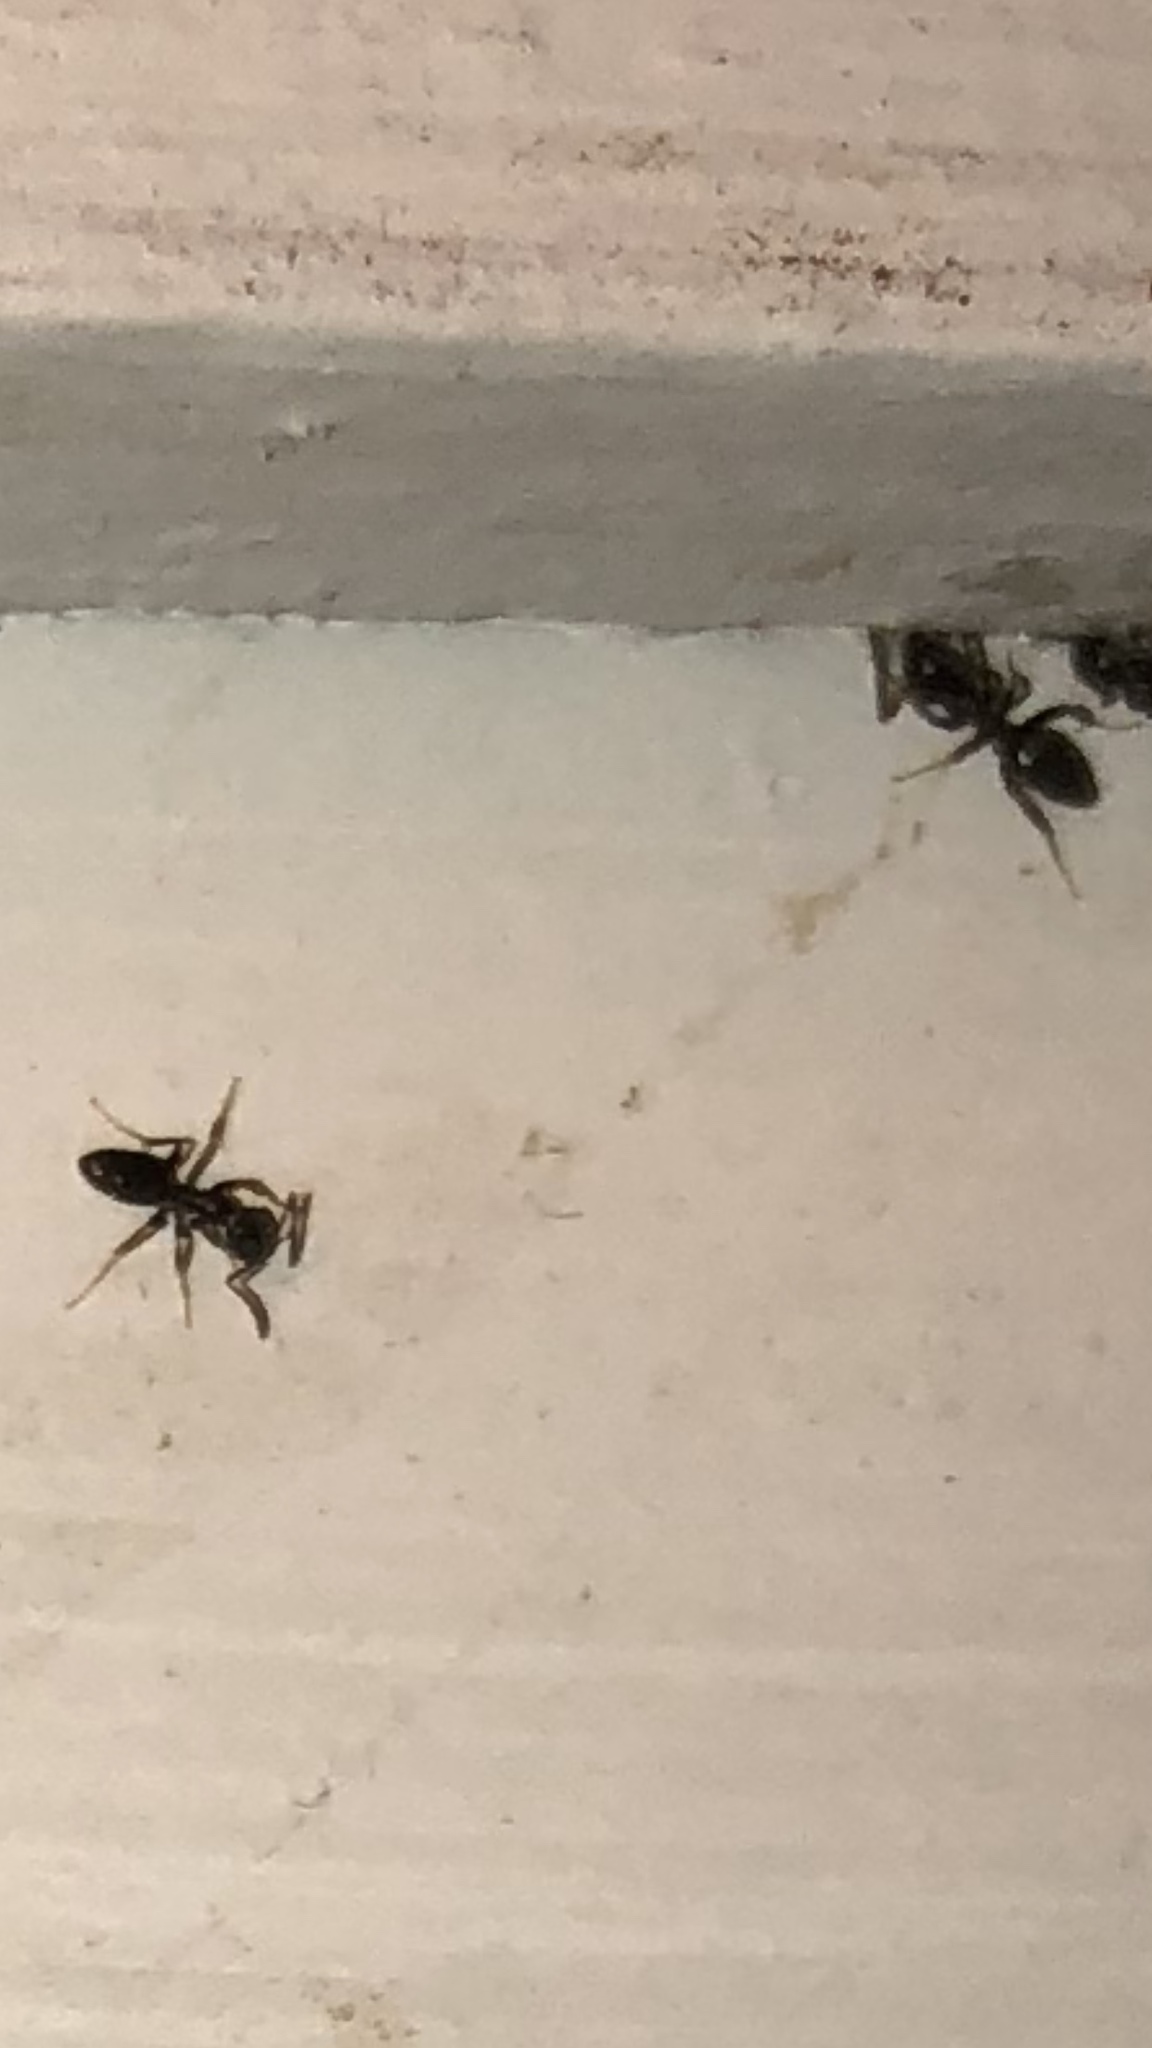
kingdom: Animalia
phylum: Arthropoda
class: Insecta
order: Hymenoptera
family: Formicidae
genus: Tapinoma
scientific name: Tapinoma sessile
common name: Odorous house ant
